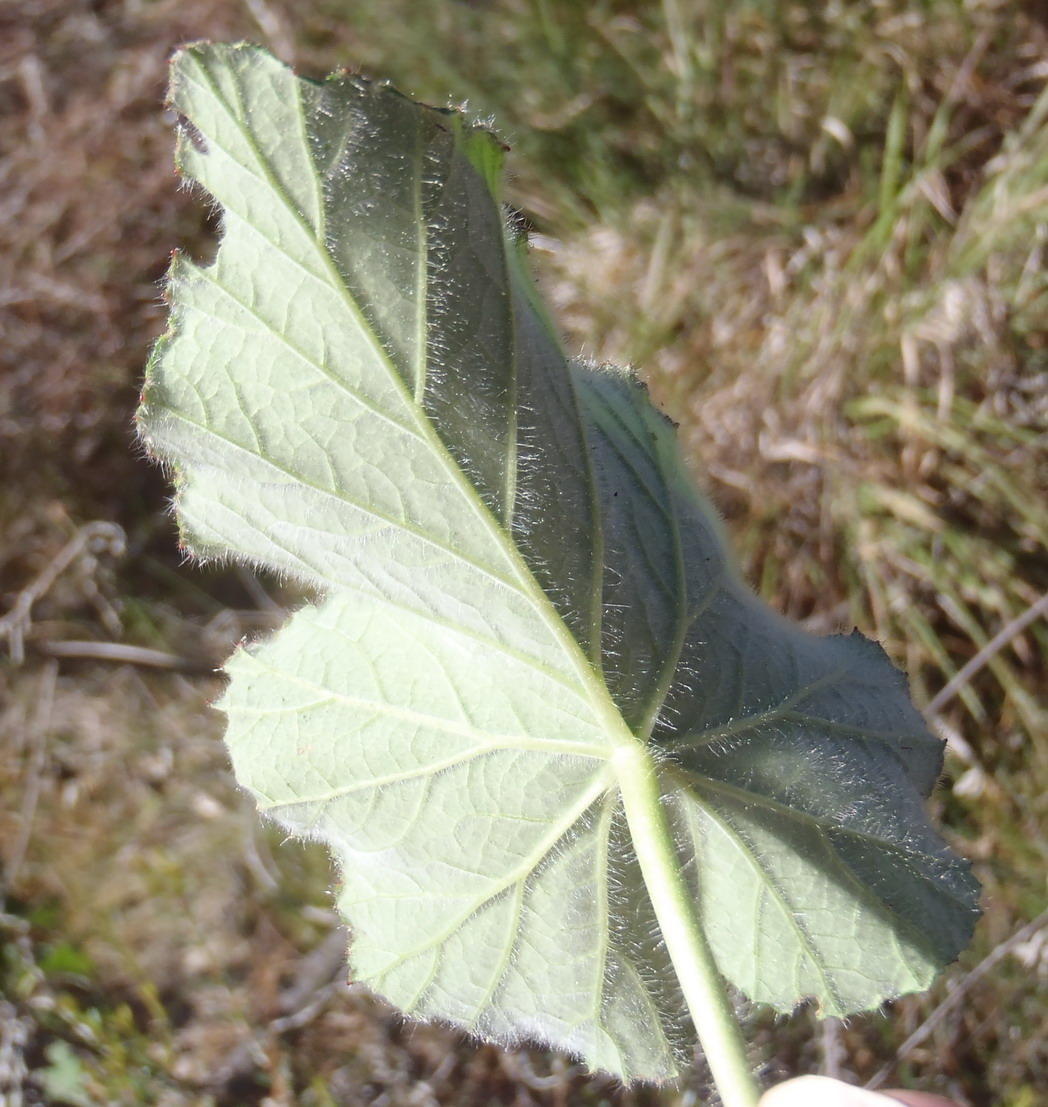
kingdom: Plantae
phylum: Tracheophyta
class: Magnoliopsida
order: Geraniales
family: Geraniaceae
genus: Pelargonium
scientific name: Pelargonium cordifolium
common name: Heart-leaf pelargonium
